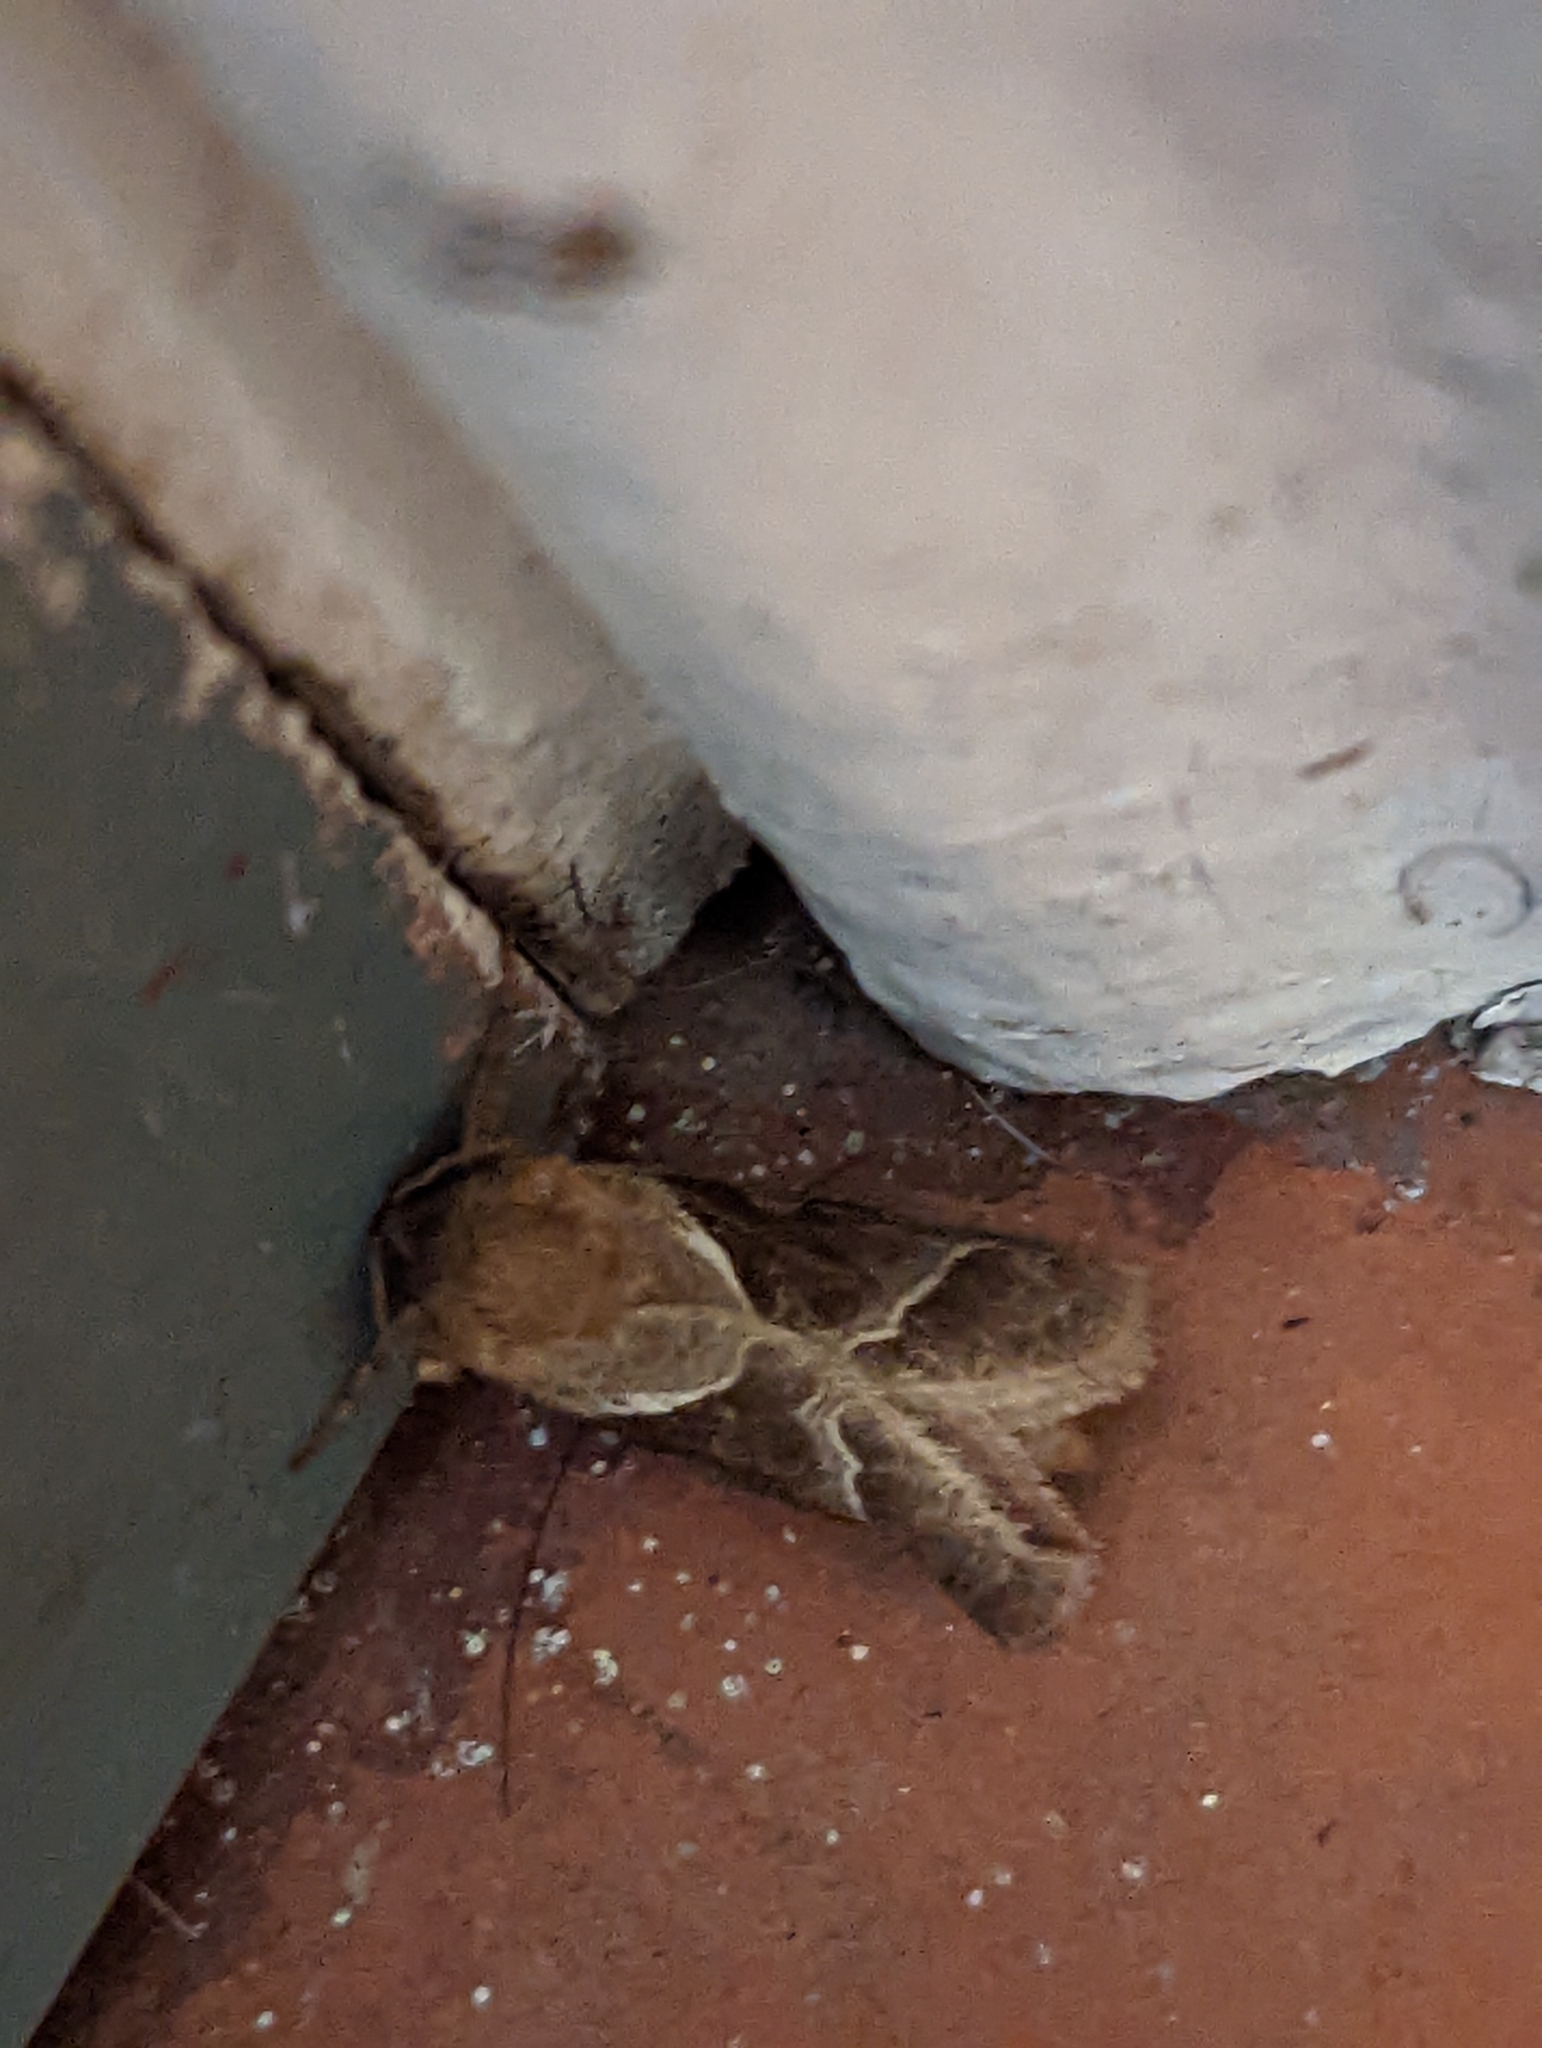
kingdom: Animalia
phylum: Arthropoda
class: Insecta
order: Lepidoptera
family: Hepialidae
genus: Triodia
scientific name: Triodia sylvina
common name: Orange swift
